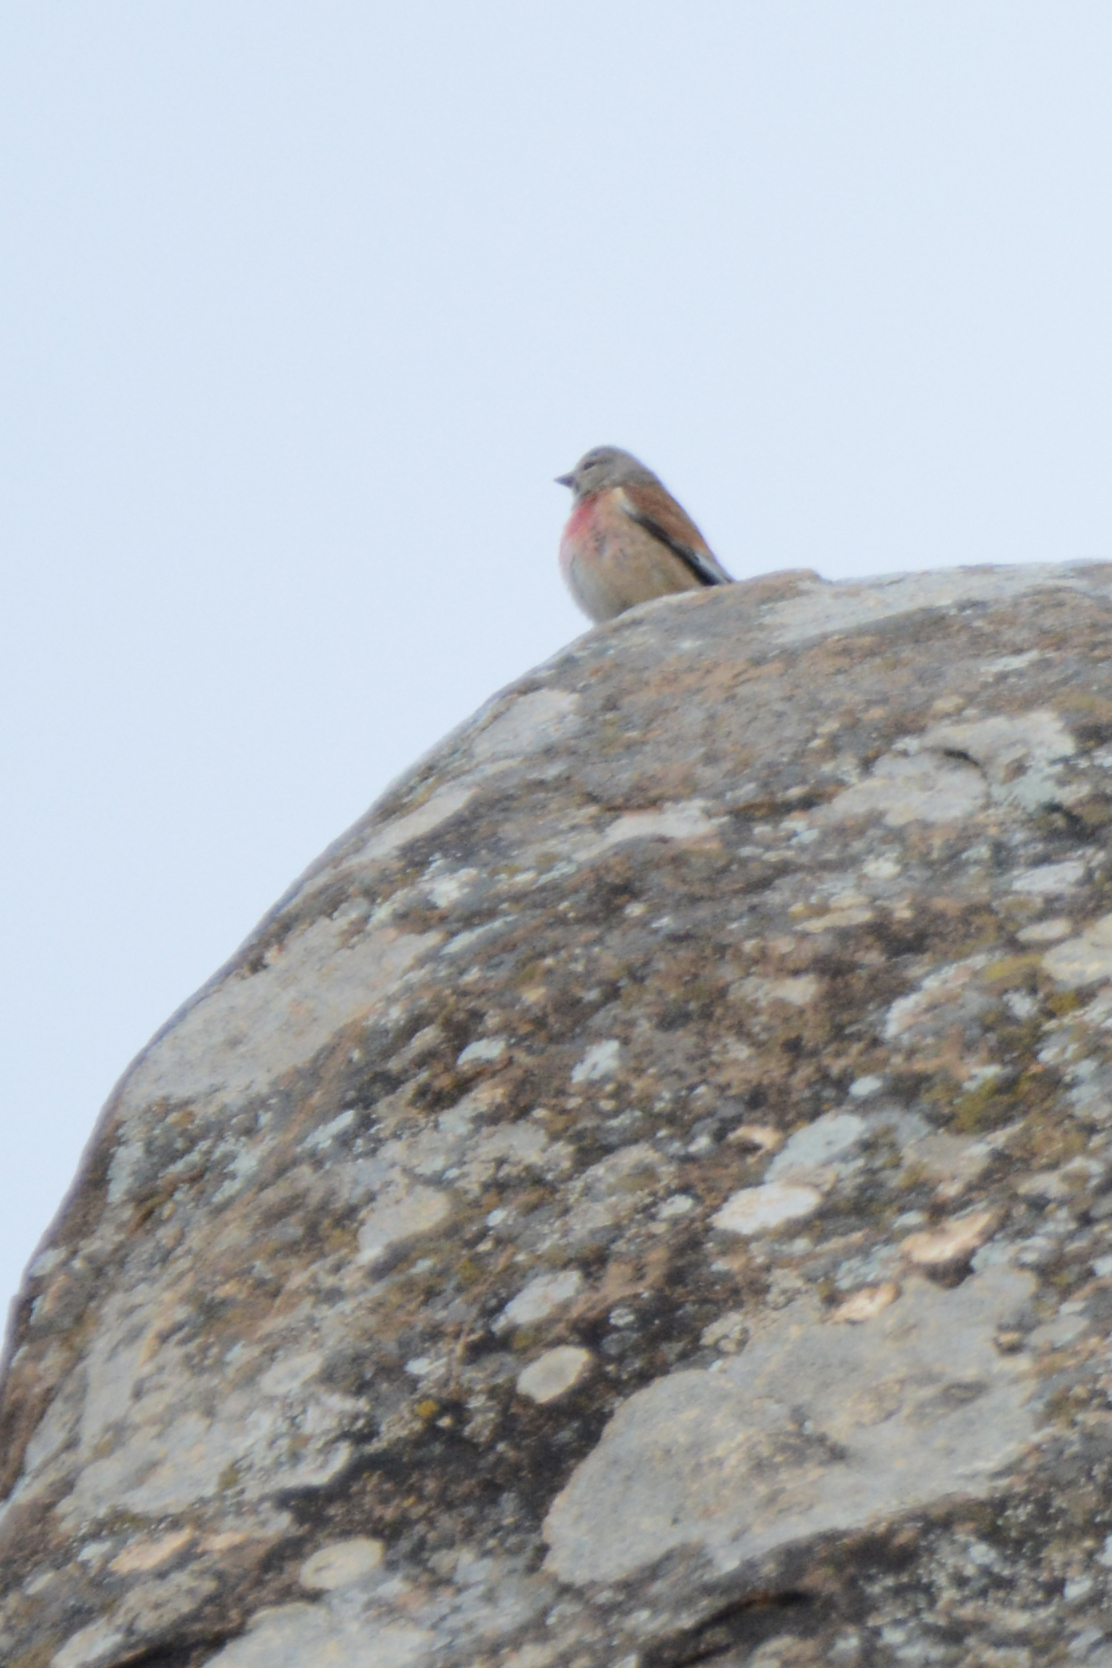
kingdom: Animalia
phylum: Chordata
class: Aves
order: Passeriformes
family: Fringillidae
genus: Linaria
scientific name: Linaria cannabina
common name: Common linnet
